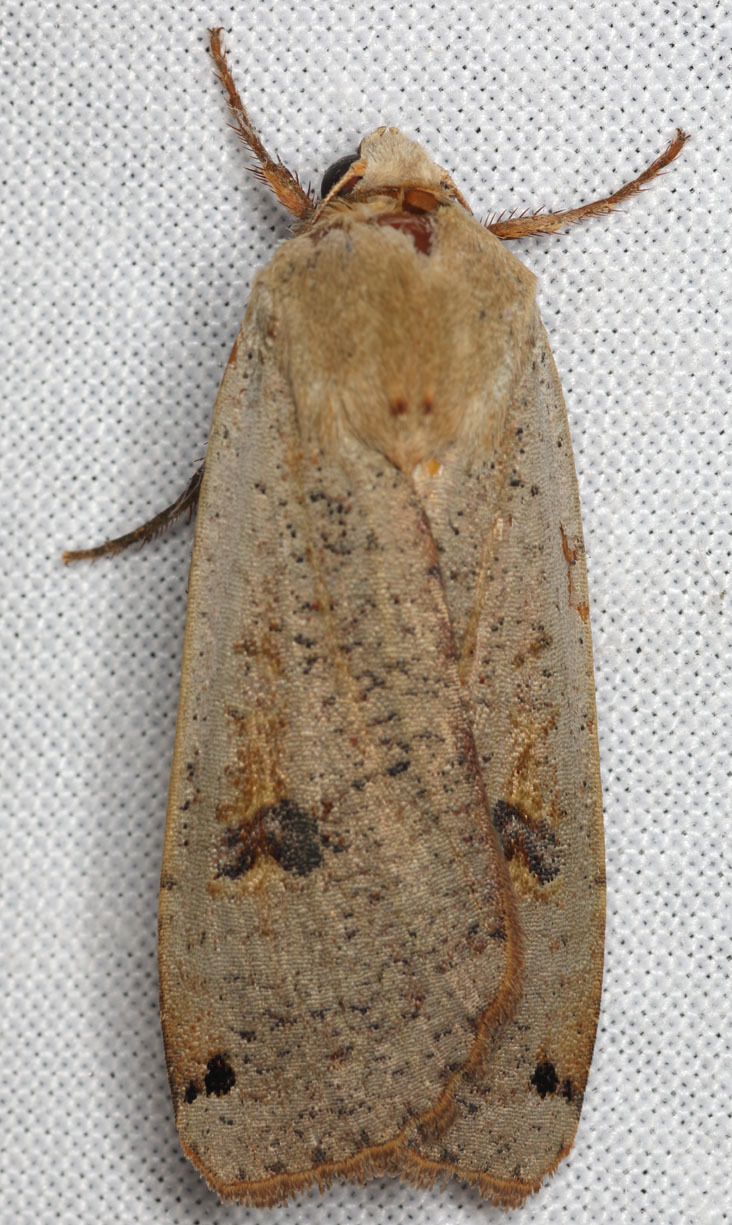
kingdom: Animalia
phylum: Arthropoda
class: Insecta
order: Lepidoptera
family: Noctuidae
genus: Noctua
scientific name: Noctua pronuba
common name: Large yellow underwing
